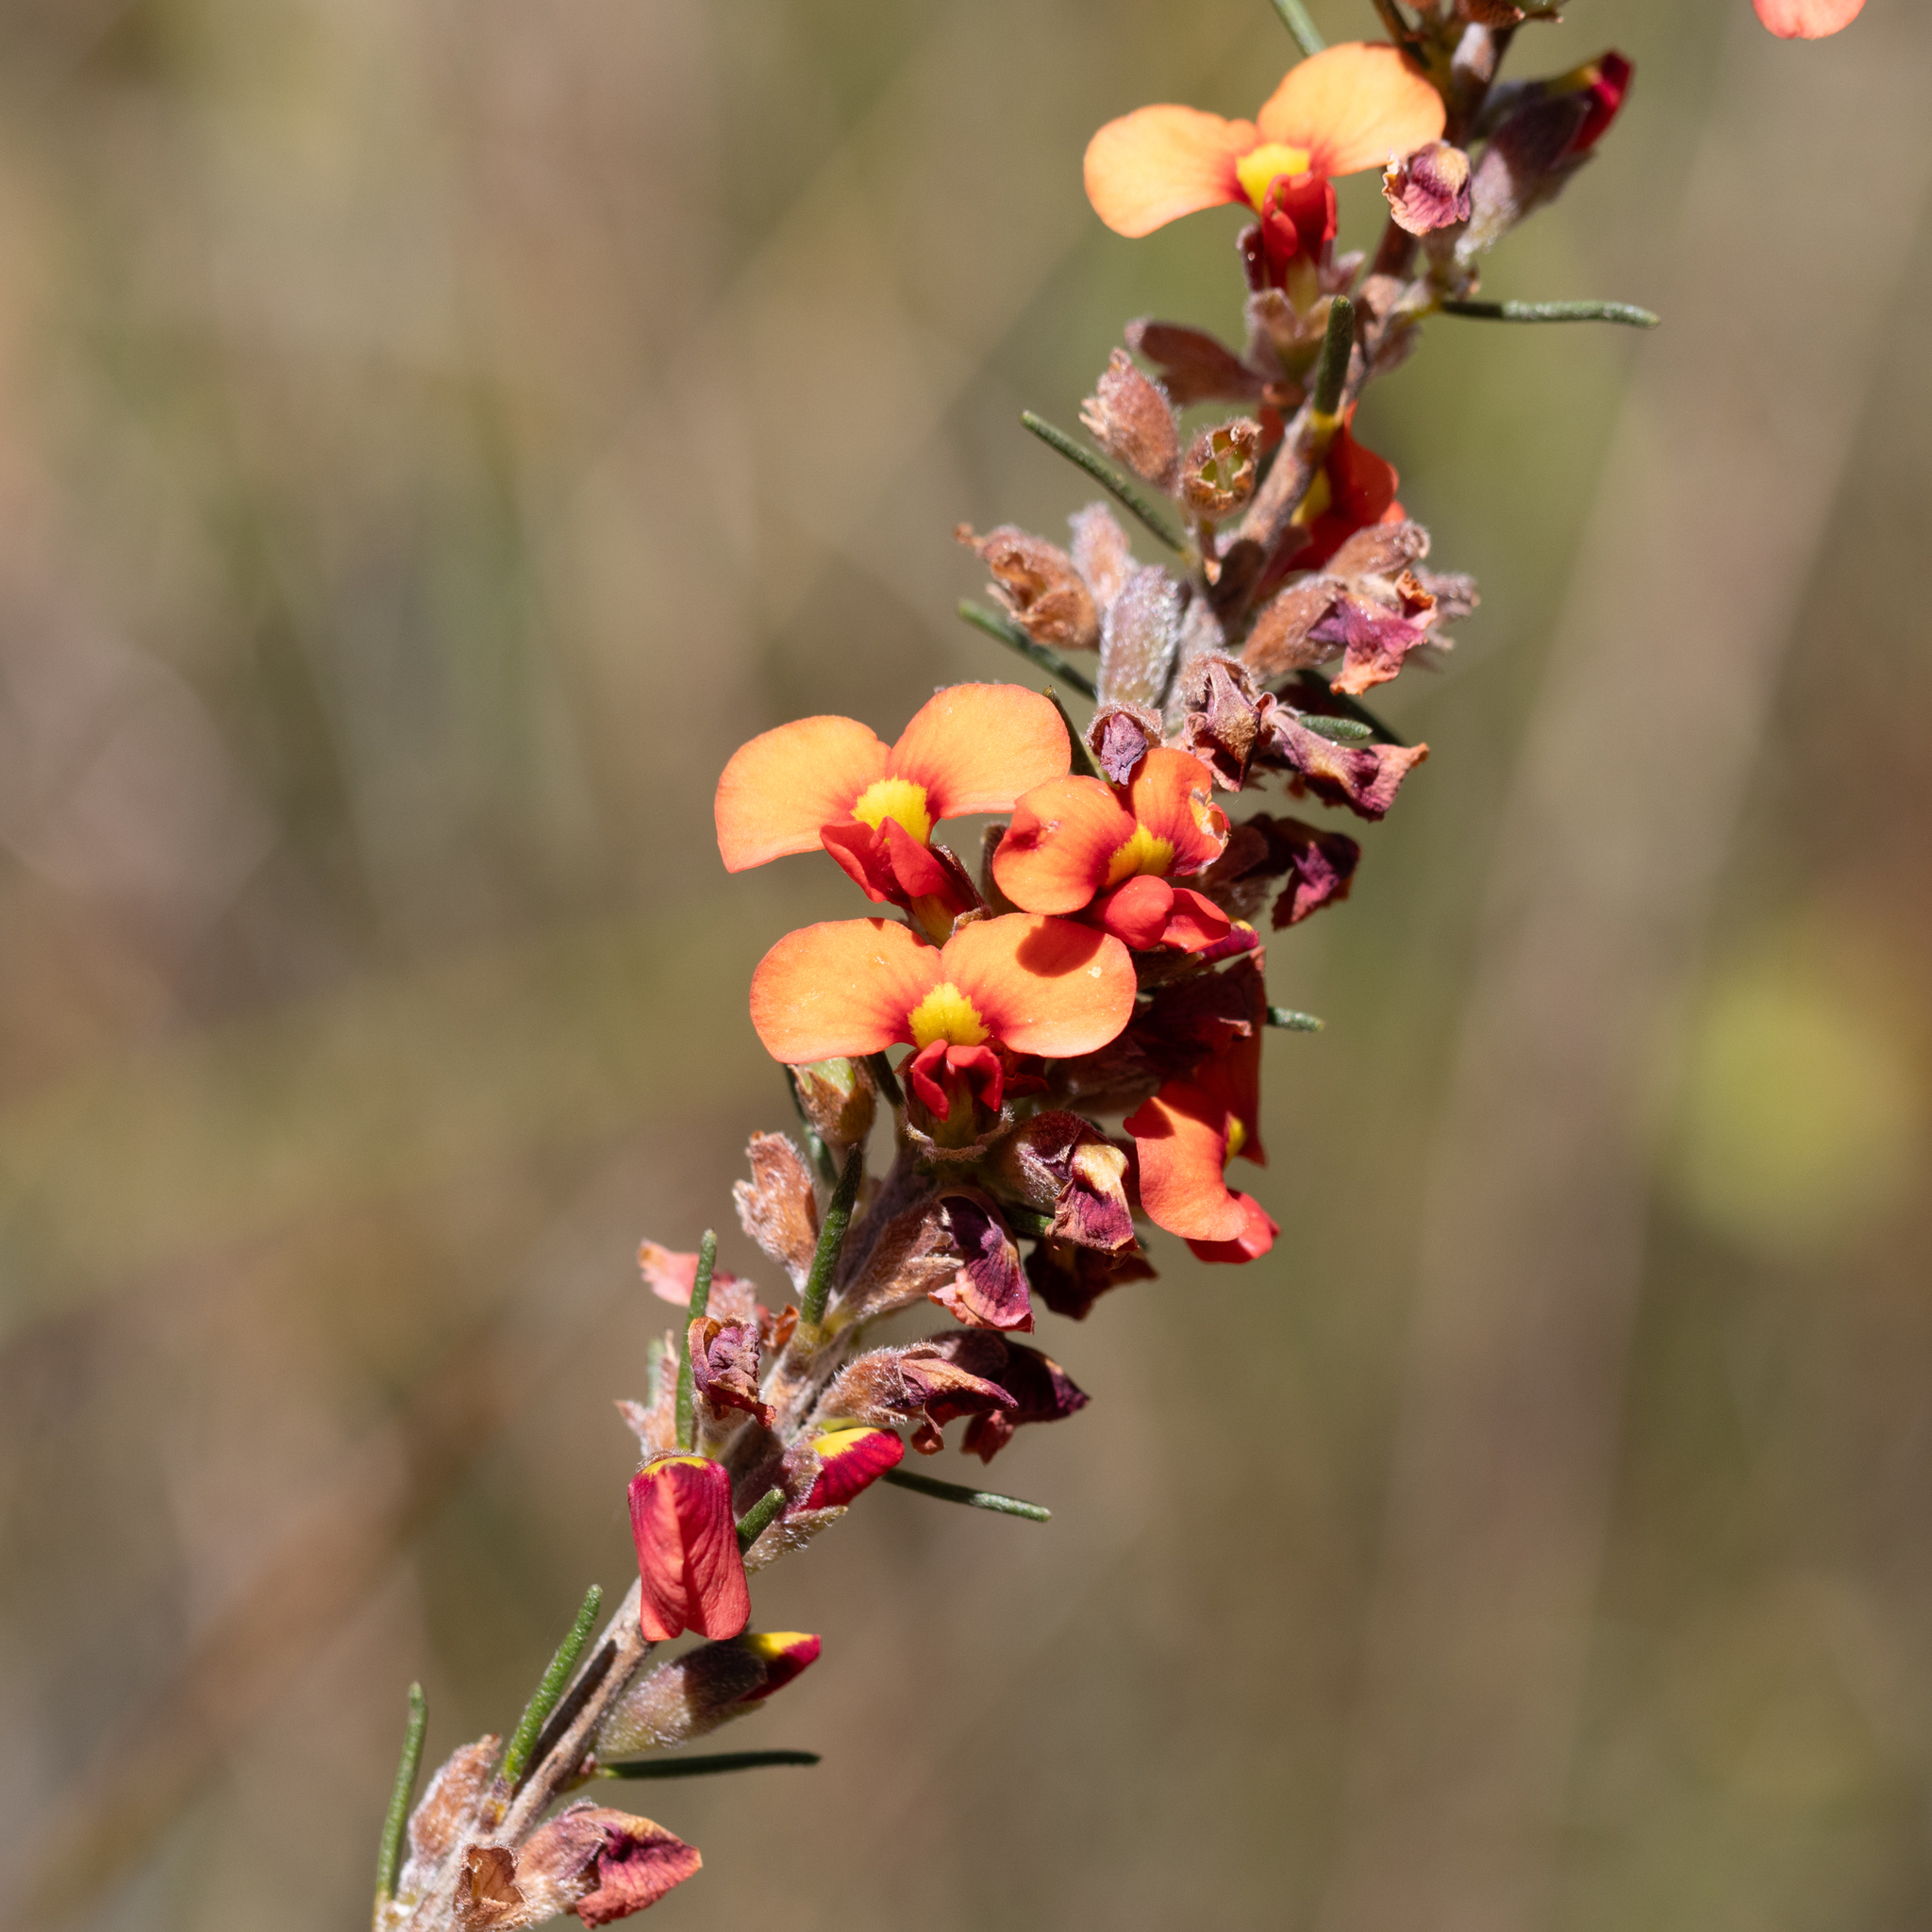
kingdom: Plantae
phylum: Tracheophyta
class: Magnoliopsida
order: Fabales
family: Fabaceae
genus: Dillwynia
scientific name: Dillwynia sericea
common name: Showy parrot-pea
